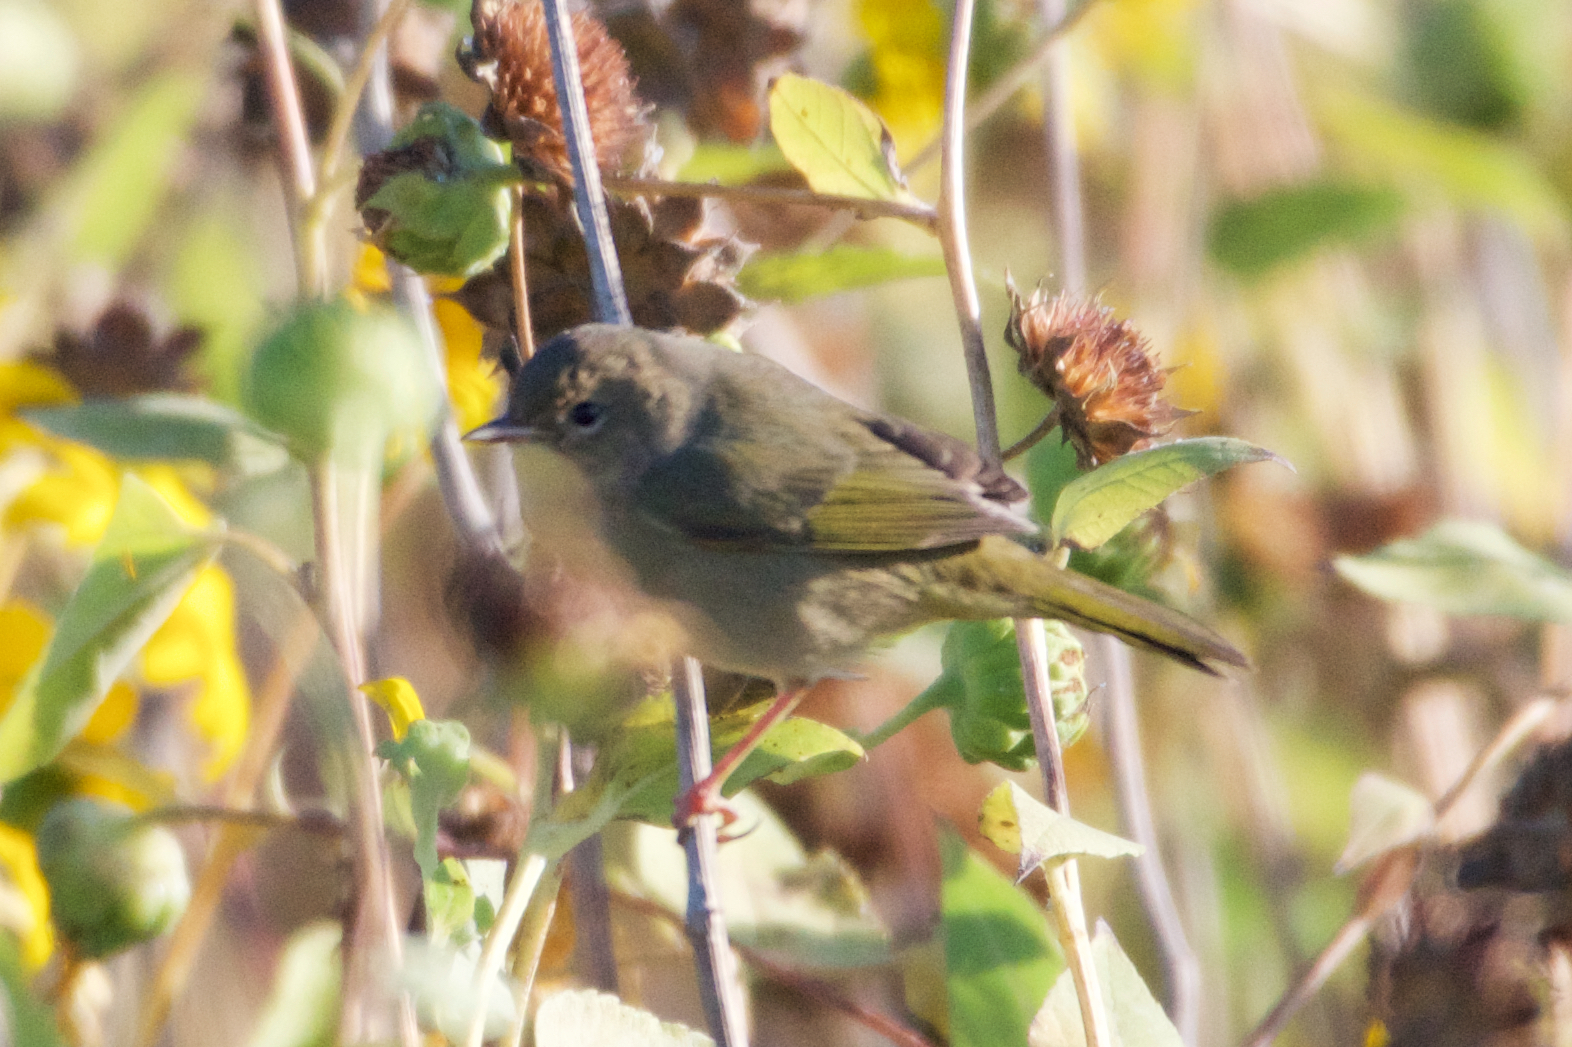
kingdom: Animalia
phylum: Chordata
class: Aves
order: Passeriformes
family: Parulidae
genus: Geothlypis
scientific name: Geothlypis trichas
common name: Common yellowthroat
